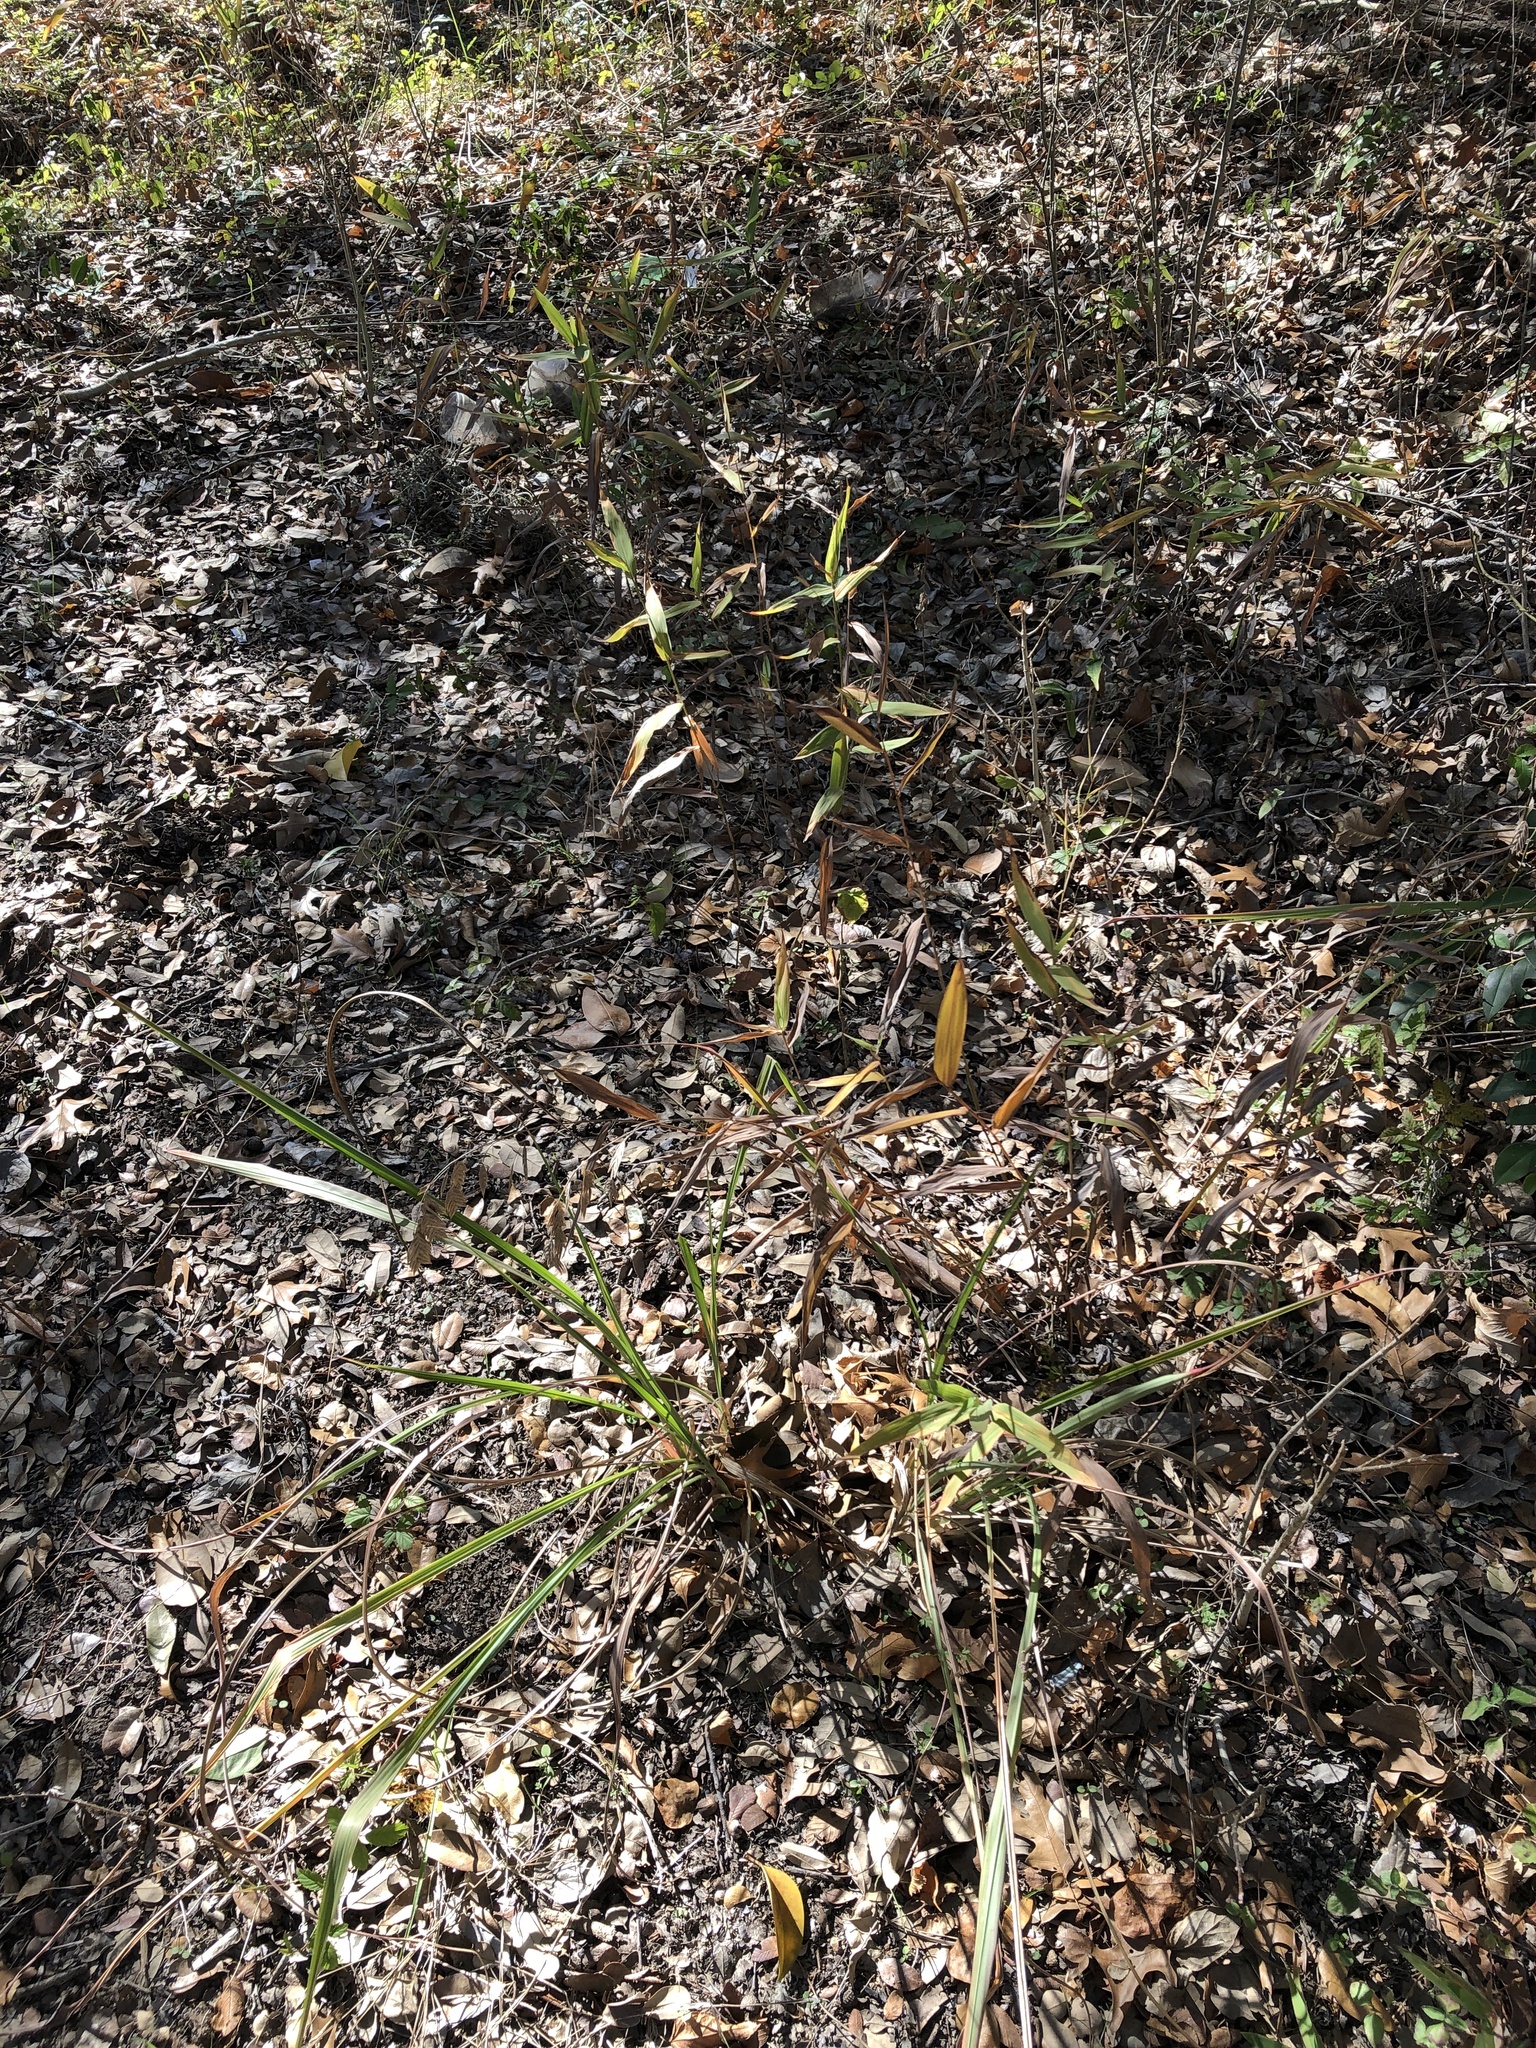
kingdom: Plantae
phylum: Tracheophyta
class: Liliopsida
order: Poales
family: Poaceae
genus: Chasmanthium
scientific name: Chasmanthium latifolium
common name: Broad-leaved chasmanthium
